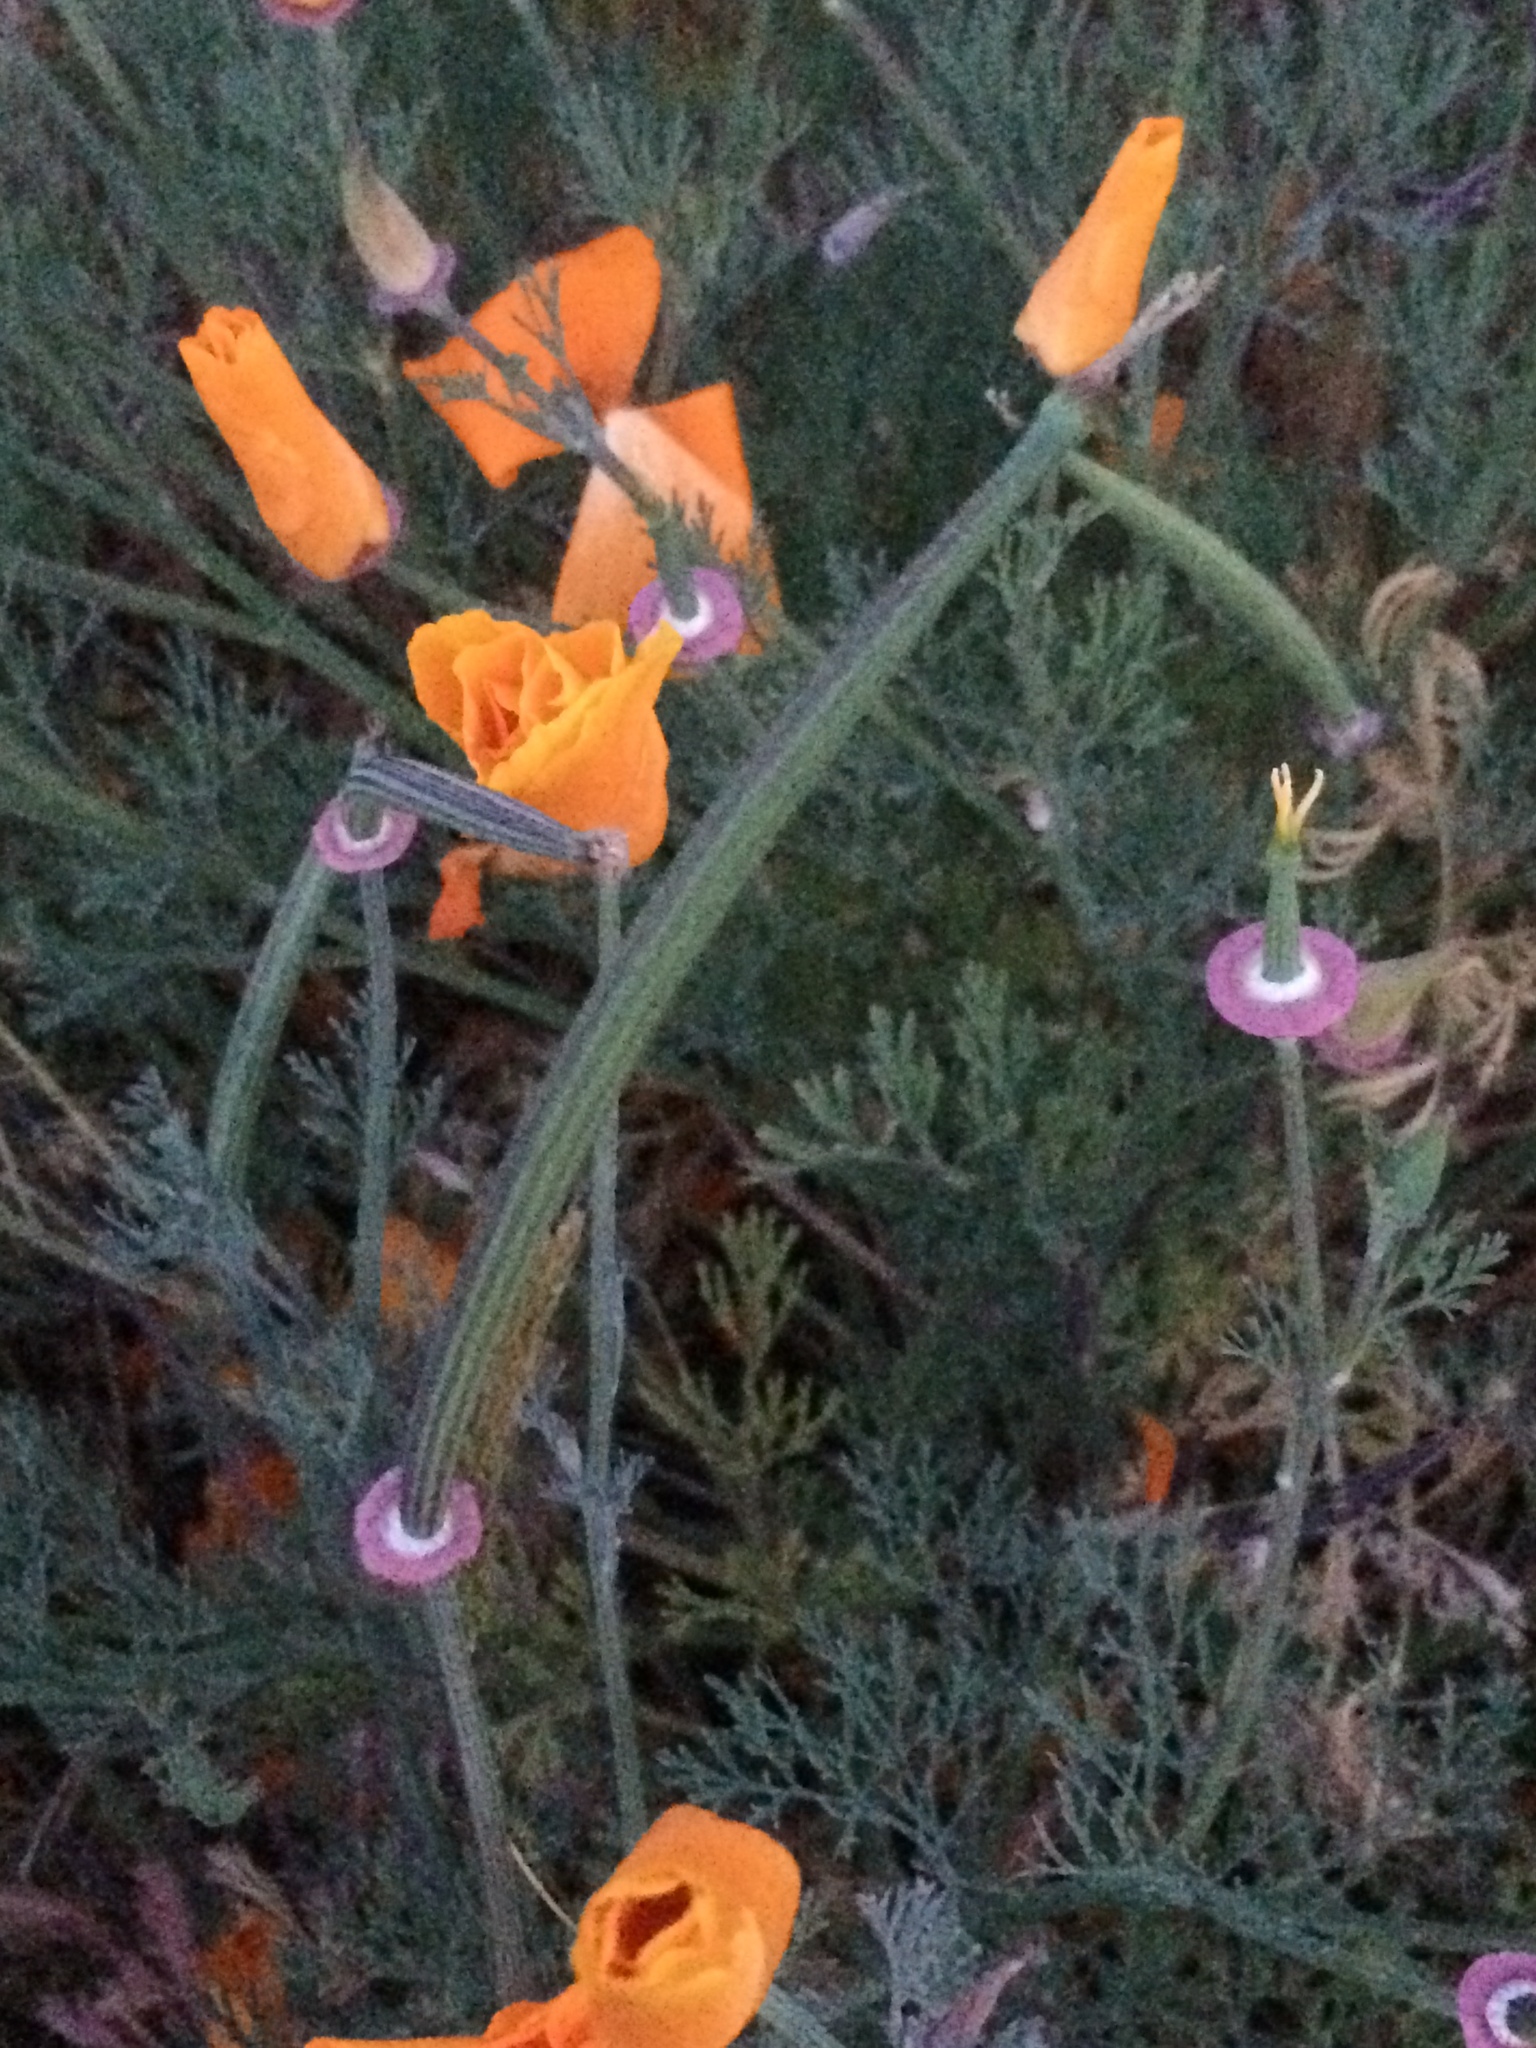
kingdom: Plantae
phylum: Tracheophyta
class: Magnoliopsida
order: Ranunculales
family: Papaveraceae
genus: Eschscholzia
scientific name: Eschscholzia californica
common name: California poppy
